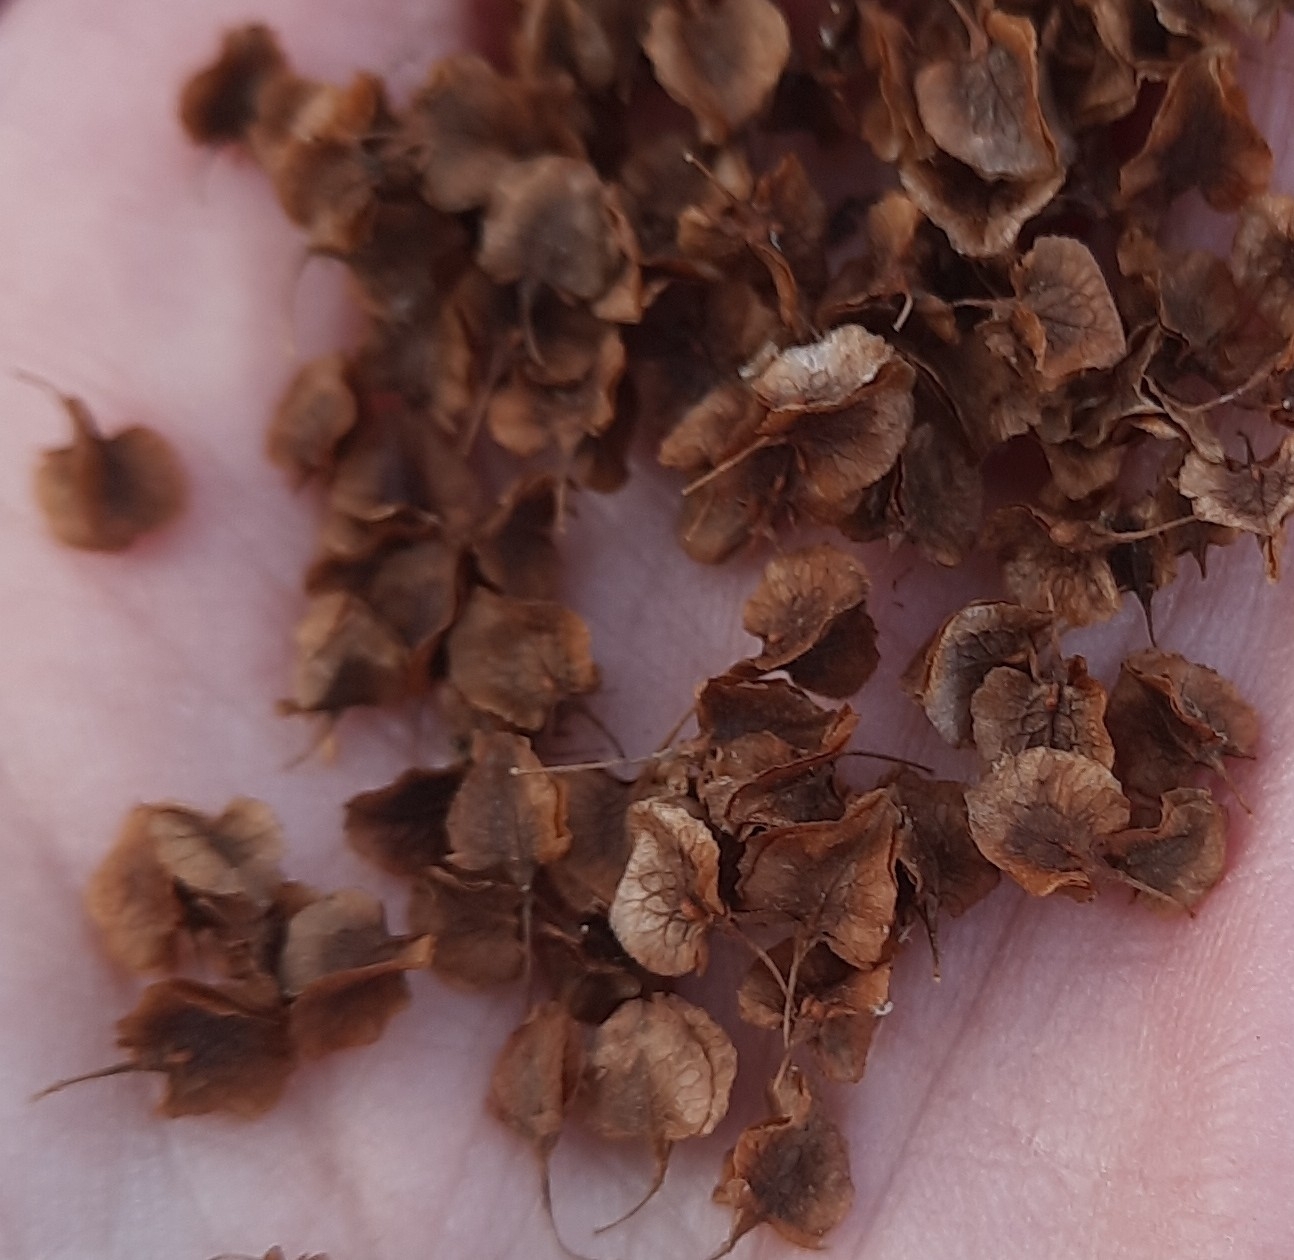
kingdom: Plantae
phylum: Tracheophyta
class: Magnoliopsida
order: Caryophyllales
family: Polygonaceae
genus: Rumex
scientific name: Rumex pseudonatronatus
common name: Field dock
